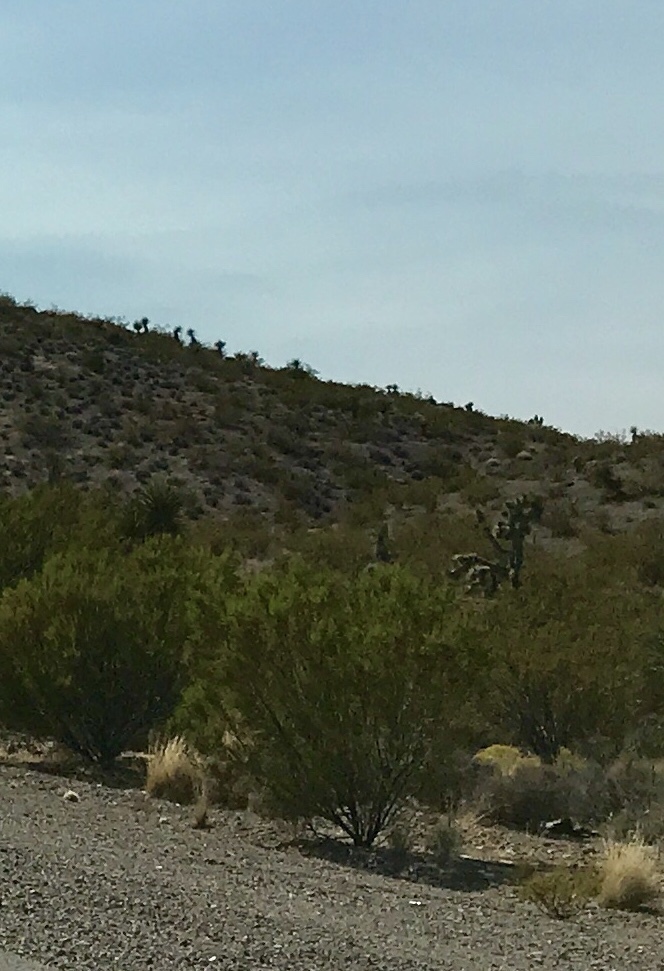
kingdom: Plantae
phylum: Tracheophyta
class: Magnoliopsida
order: Zygophyllales
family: Zygophyllaceae
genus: Larrea
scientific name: Larrea tridentata
